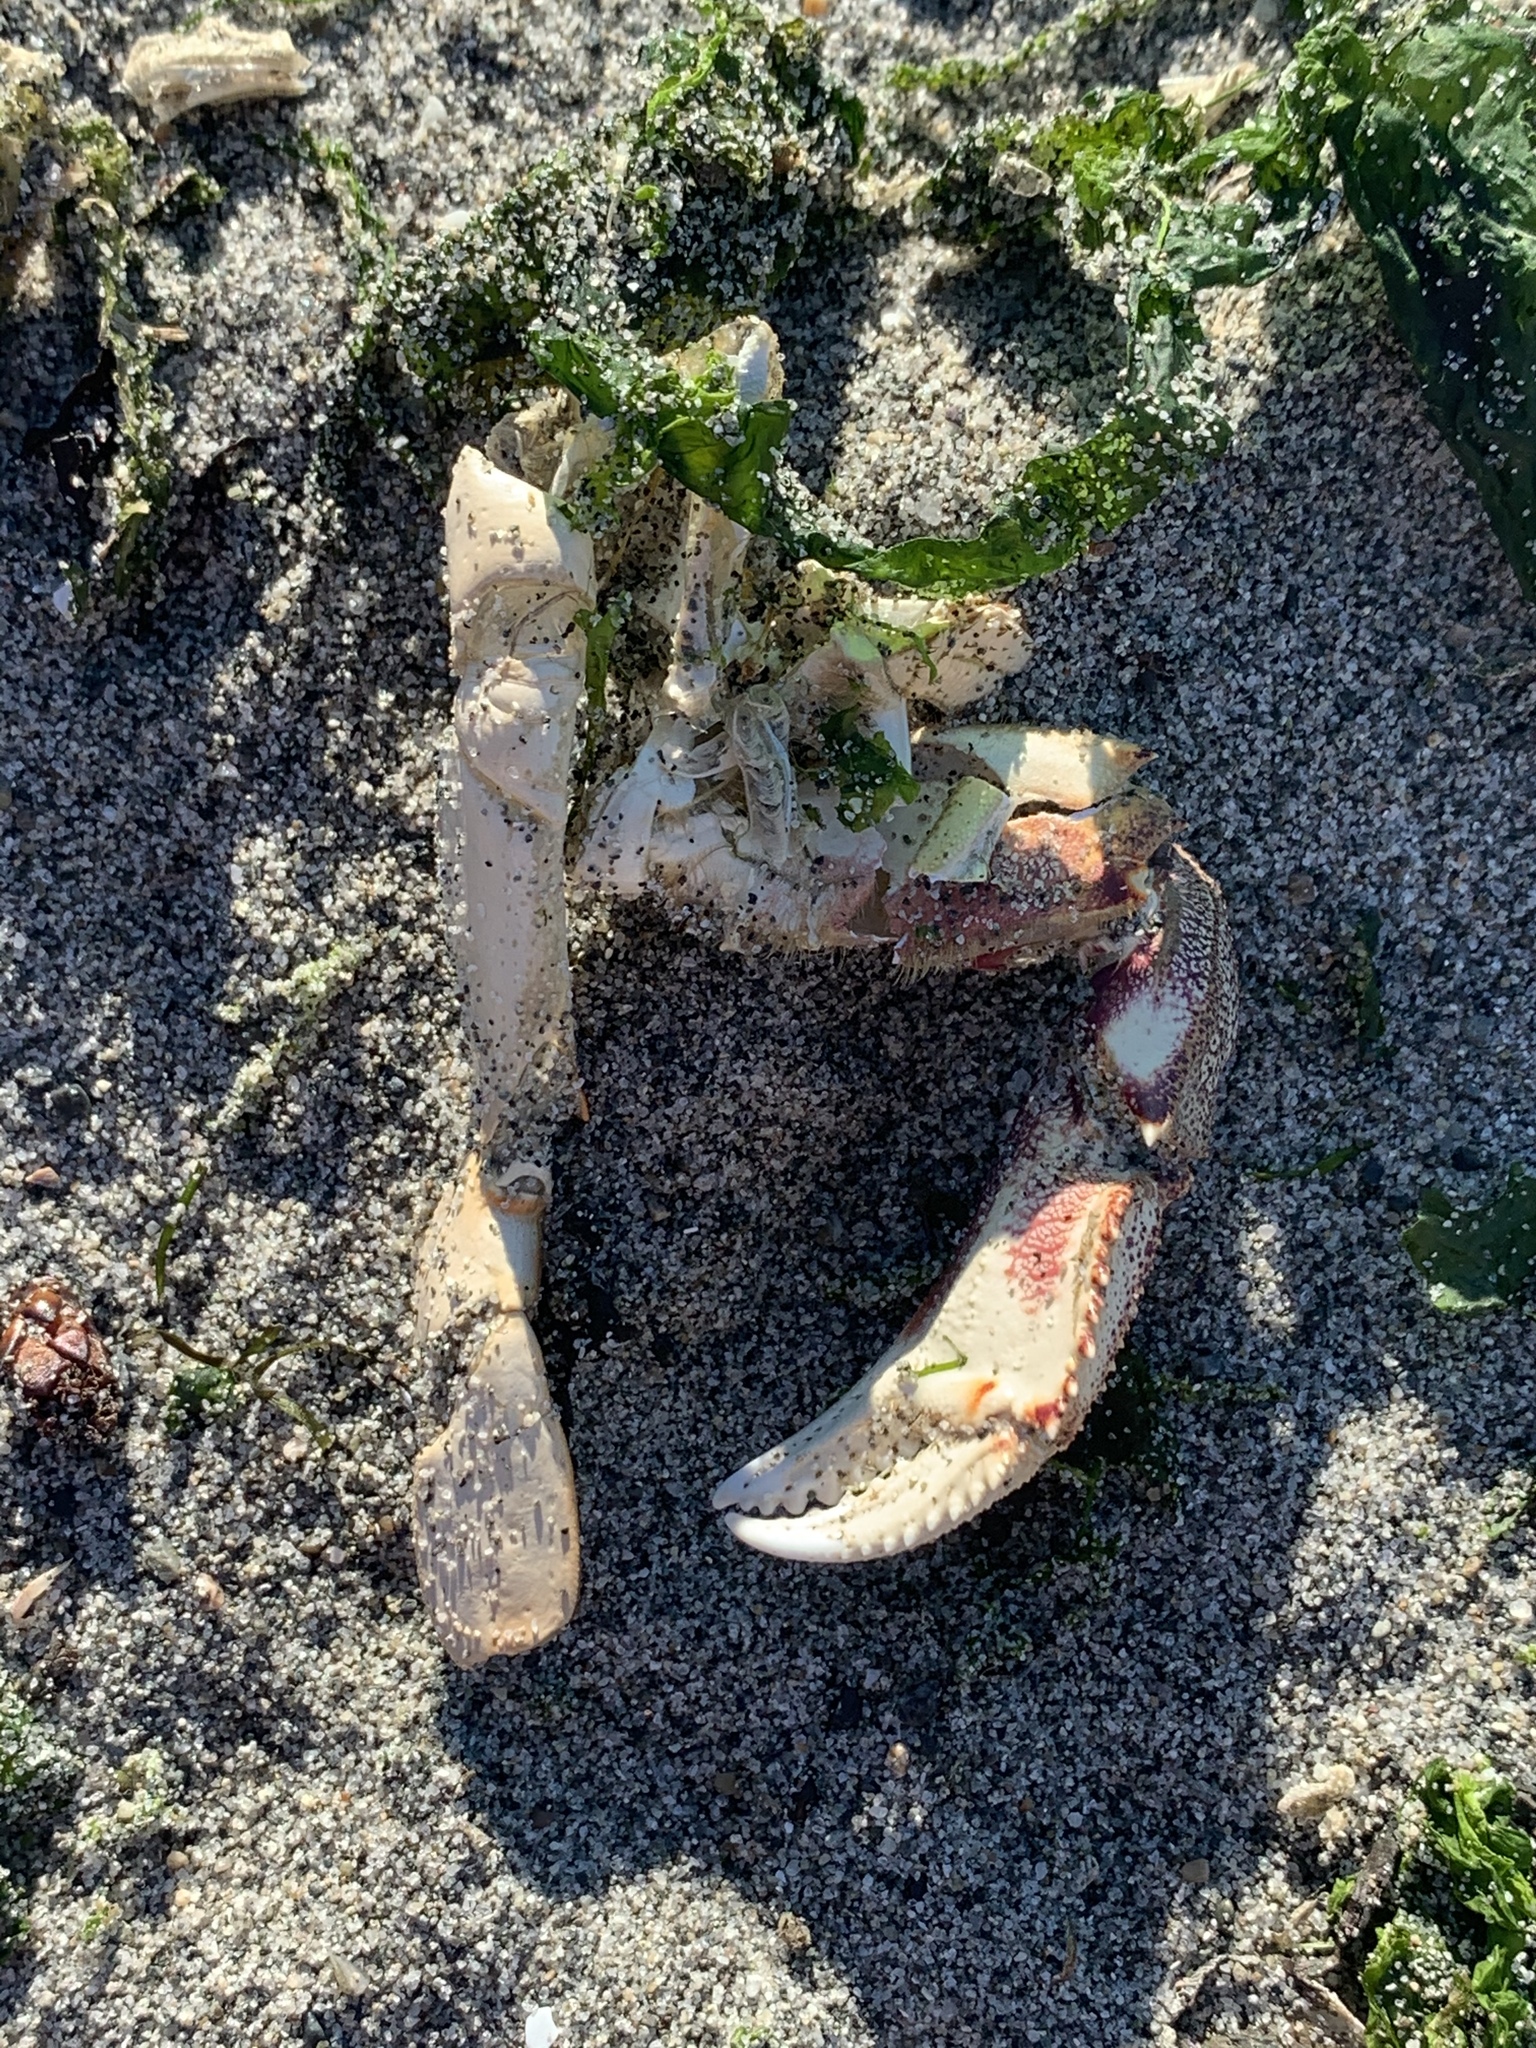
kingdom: Animalia
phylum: Arthropoda
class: Malacostraca
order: Decapoda
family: Cancridae
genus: Metacarcinus
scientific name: Metacarcinus magister
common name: Californian crab
